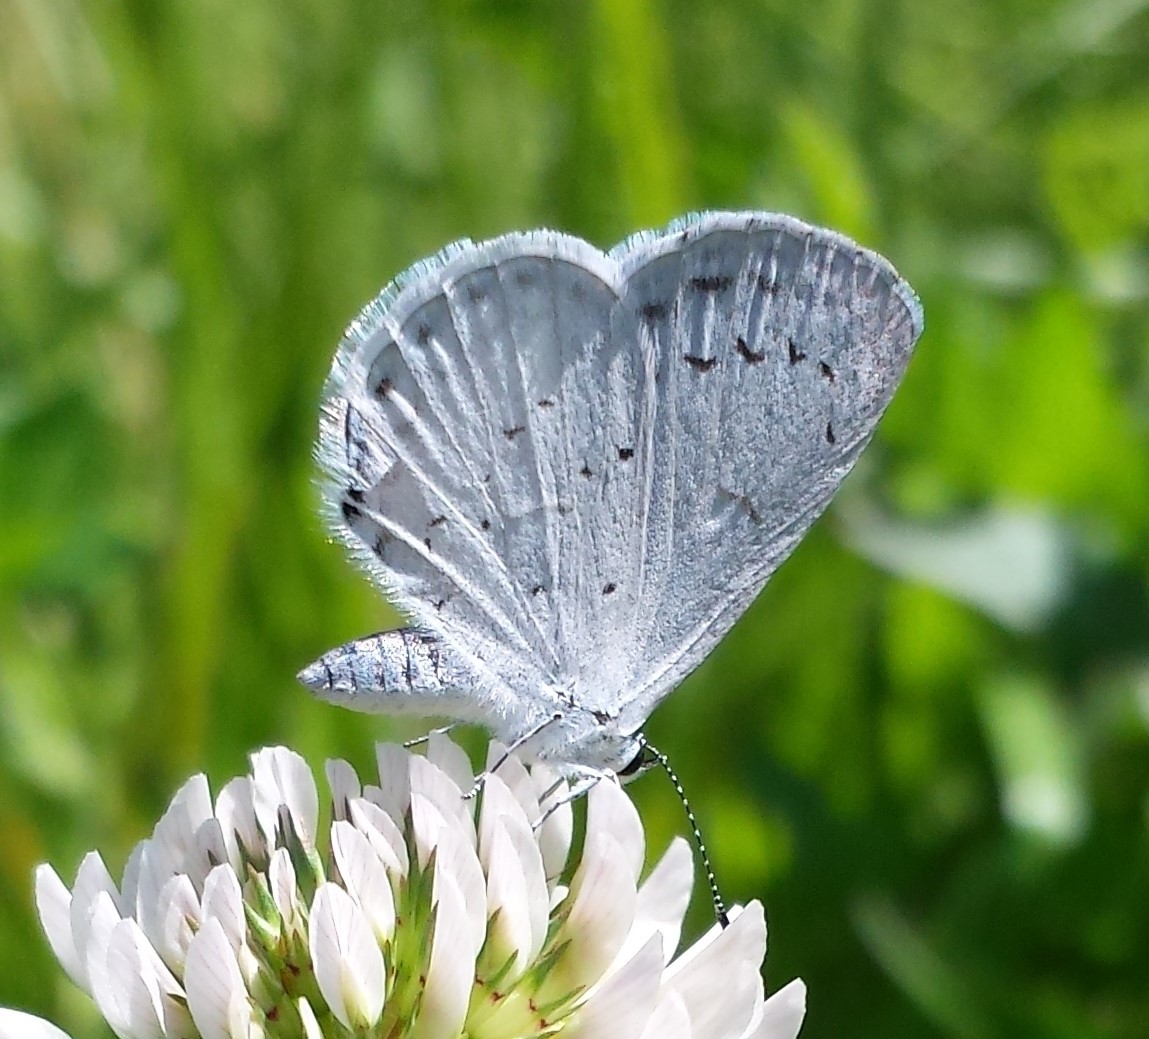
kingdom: Animalia
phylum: Arthropoda
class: Insecta
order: Lepidoptera
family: Lycaenidae
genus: Cyaniris
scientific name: Cyaniris neglecta
